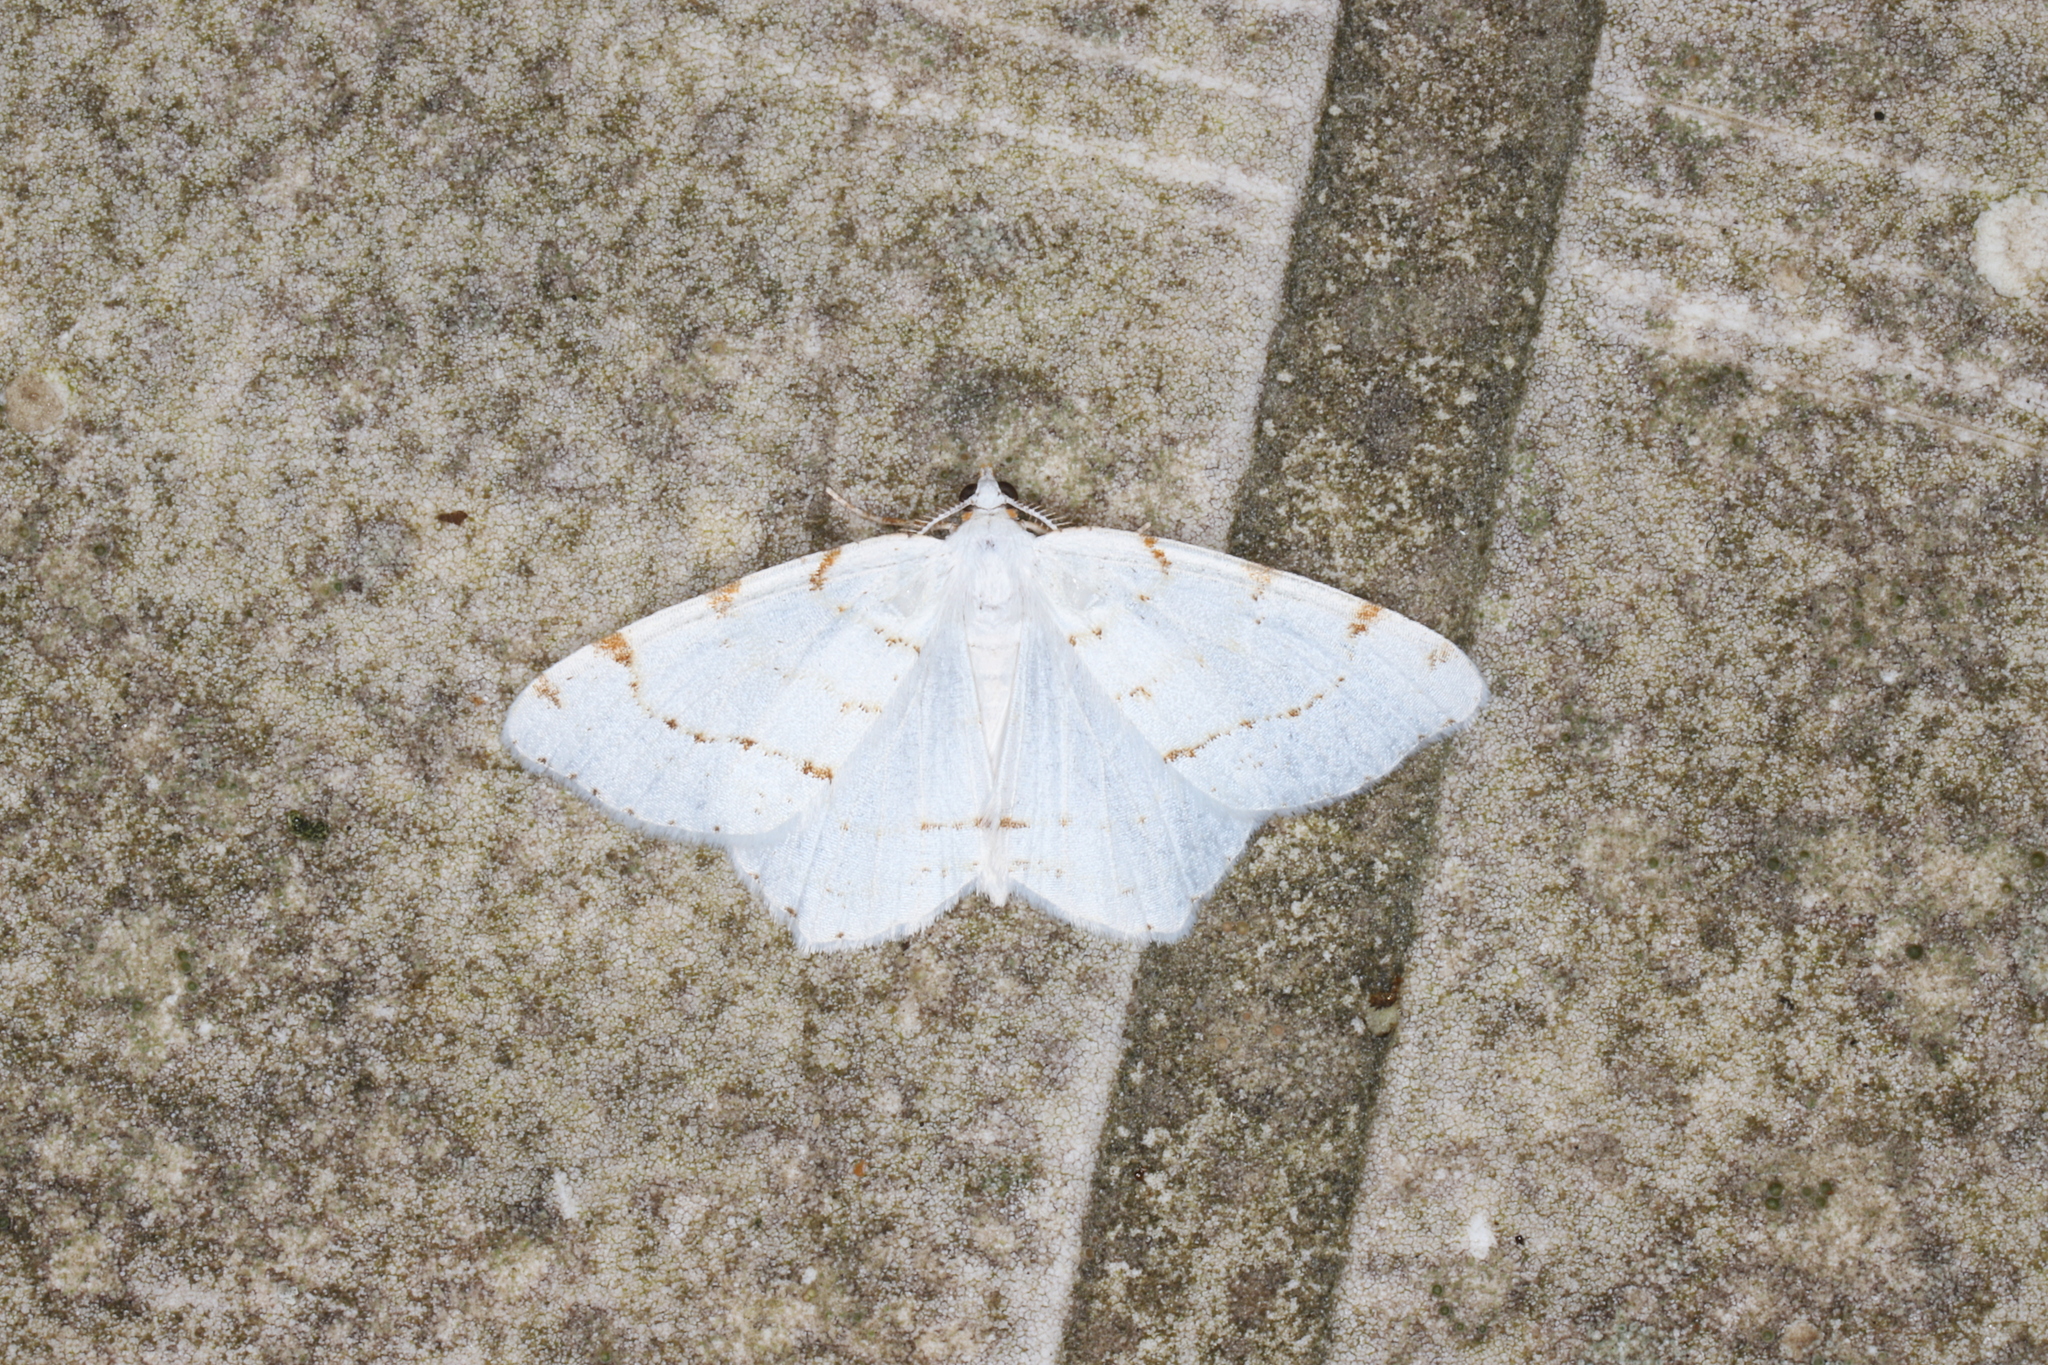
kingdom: Animalia
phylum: Arthropoda
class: Insecta
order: Lepidoptera
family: Geometridae
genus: Macaria
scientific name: Macaria pustularia
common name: Lesser maple spanworm moth
